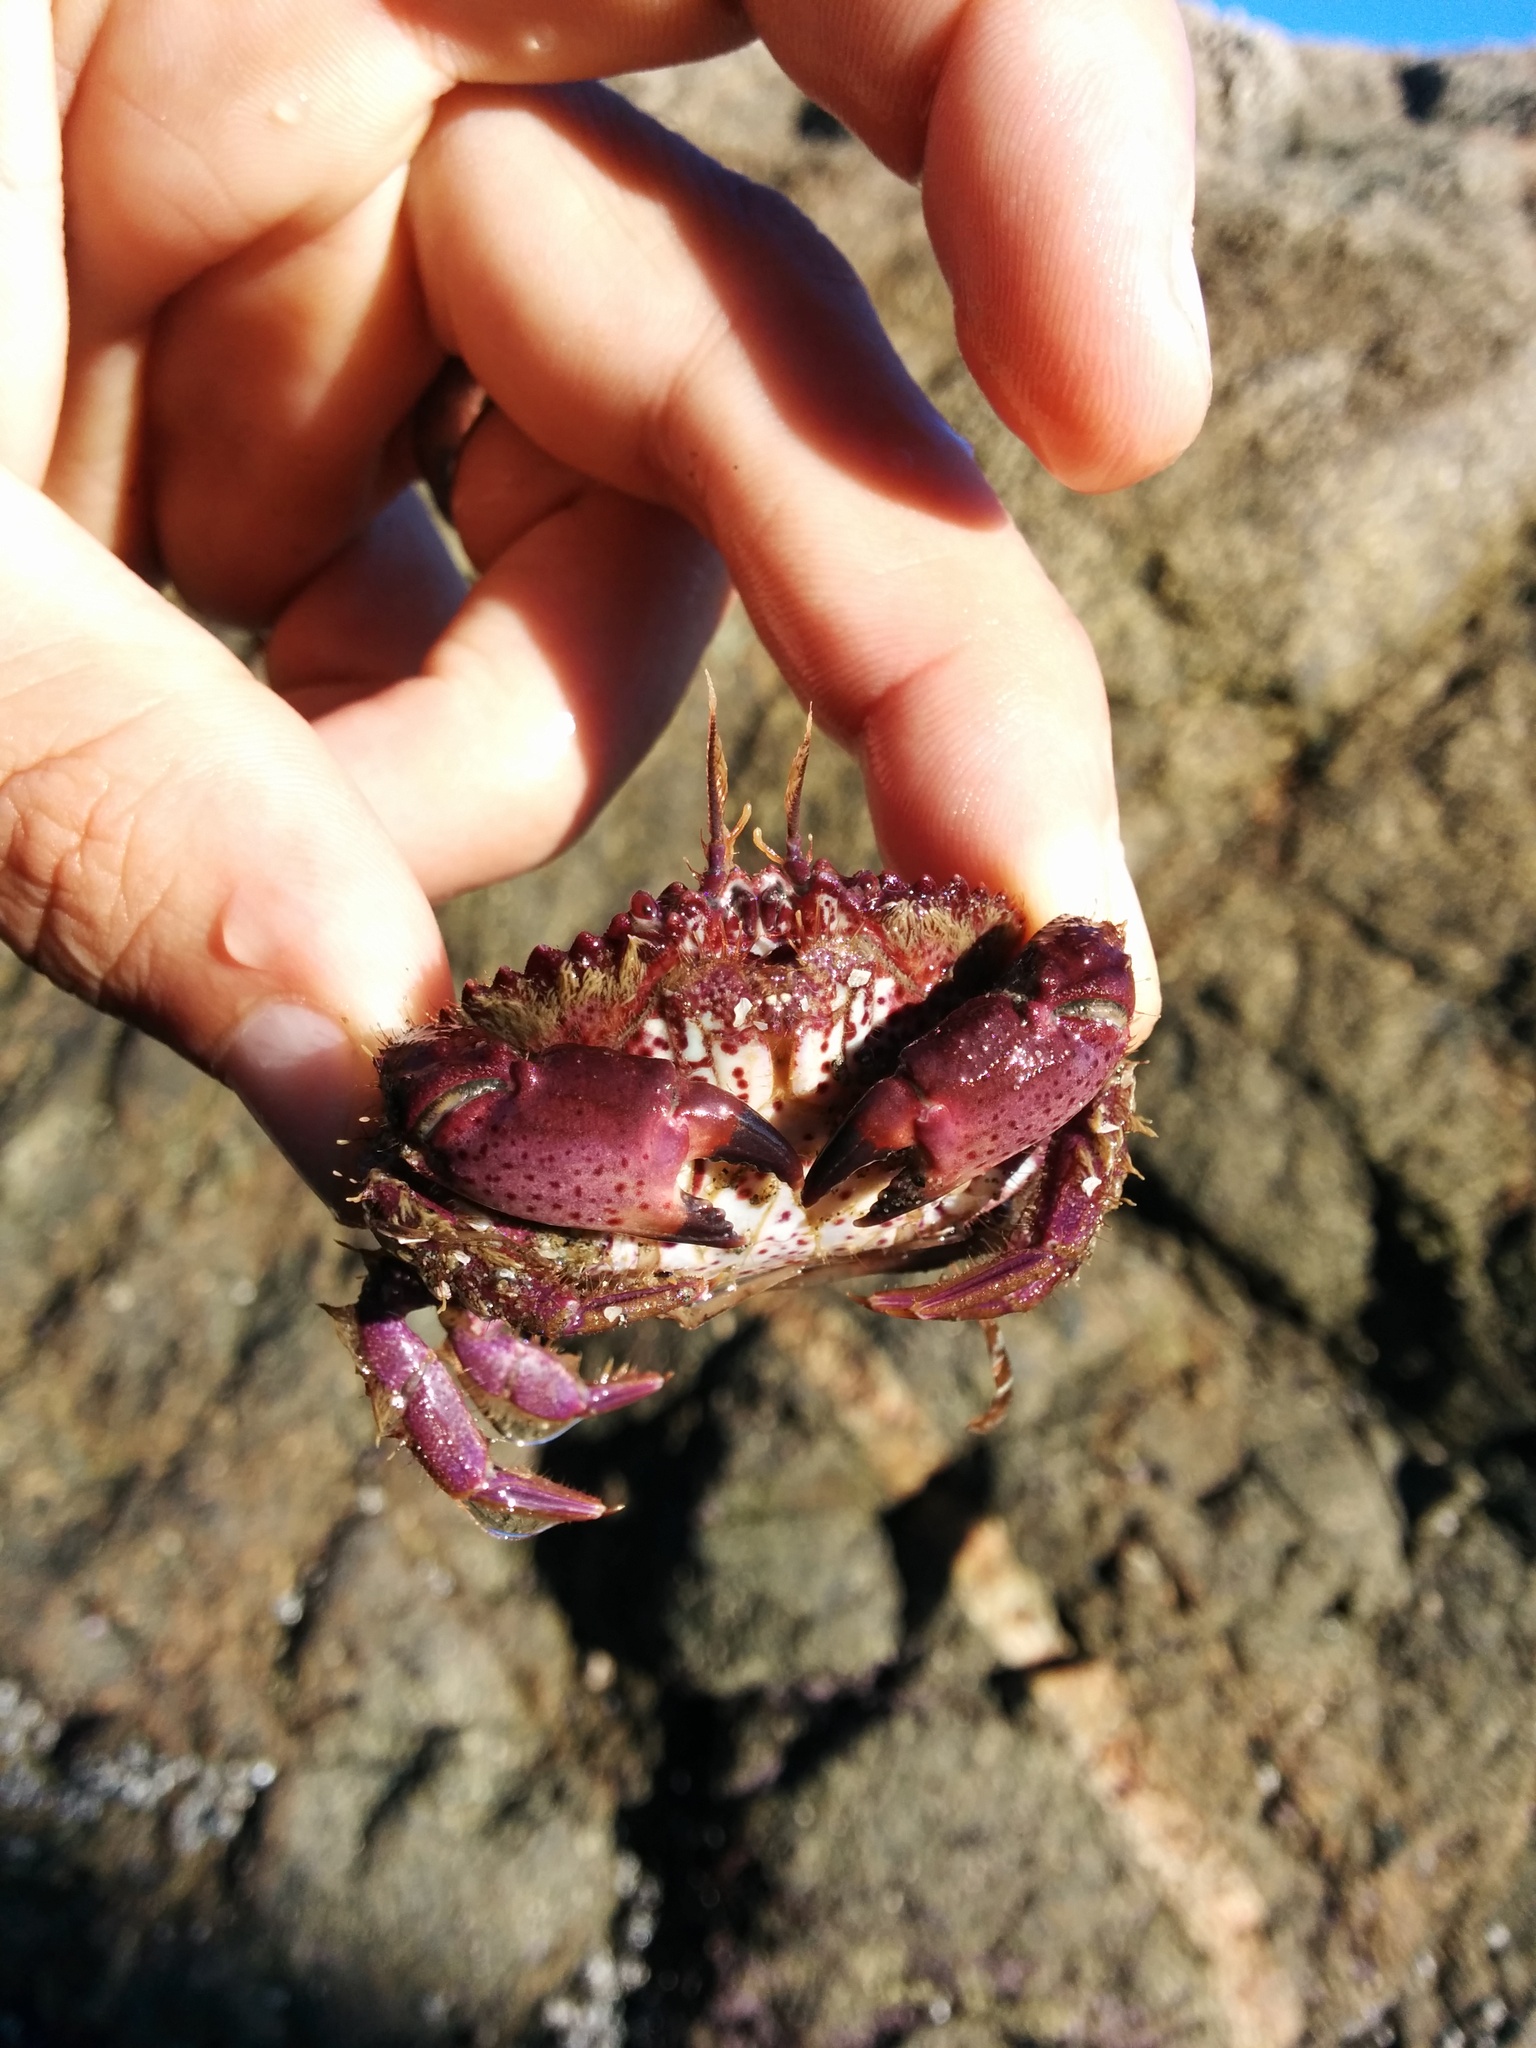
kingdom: Animalia
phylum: Arthropoda
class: Malacostraca
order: Decapoda
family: Cancridae
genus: Romaleon
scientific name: Romaleon antennarium
